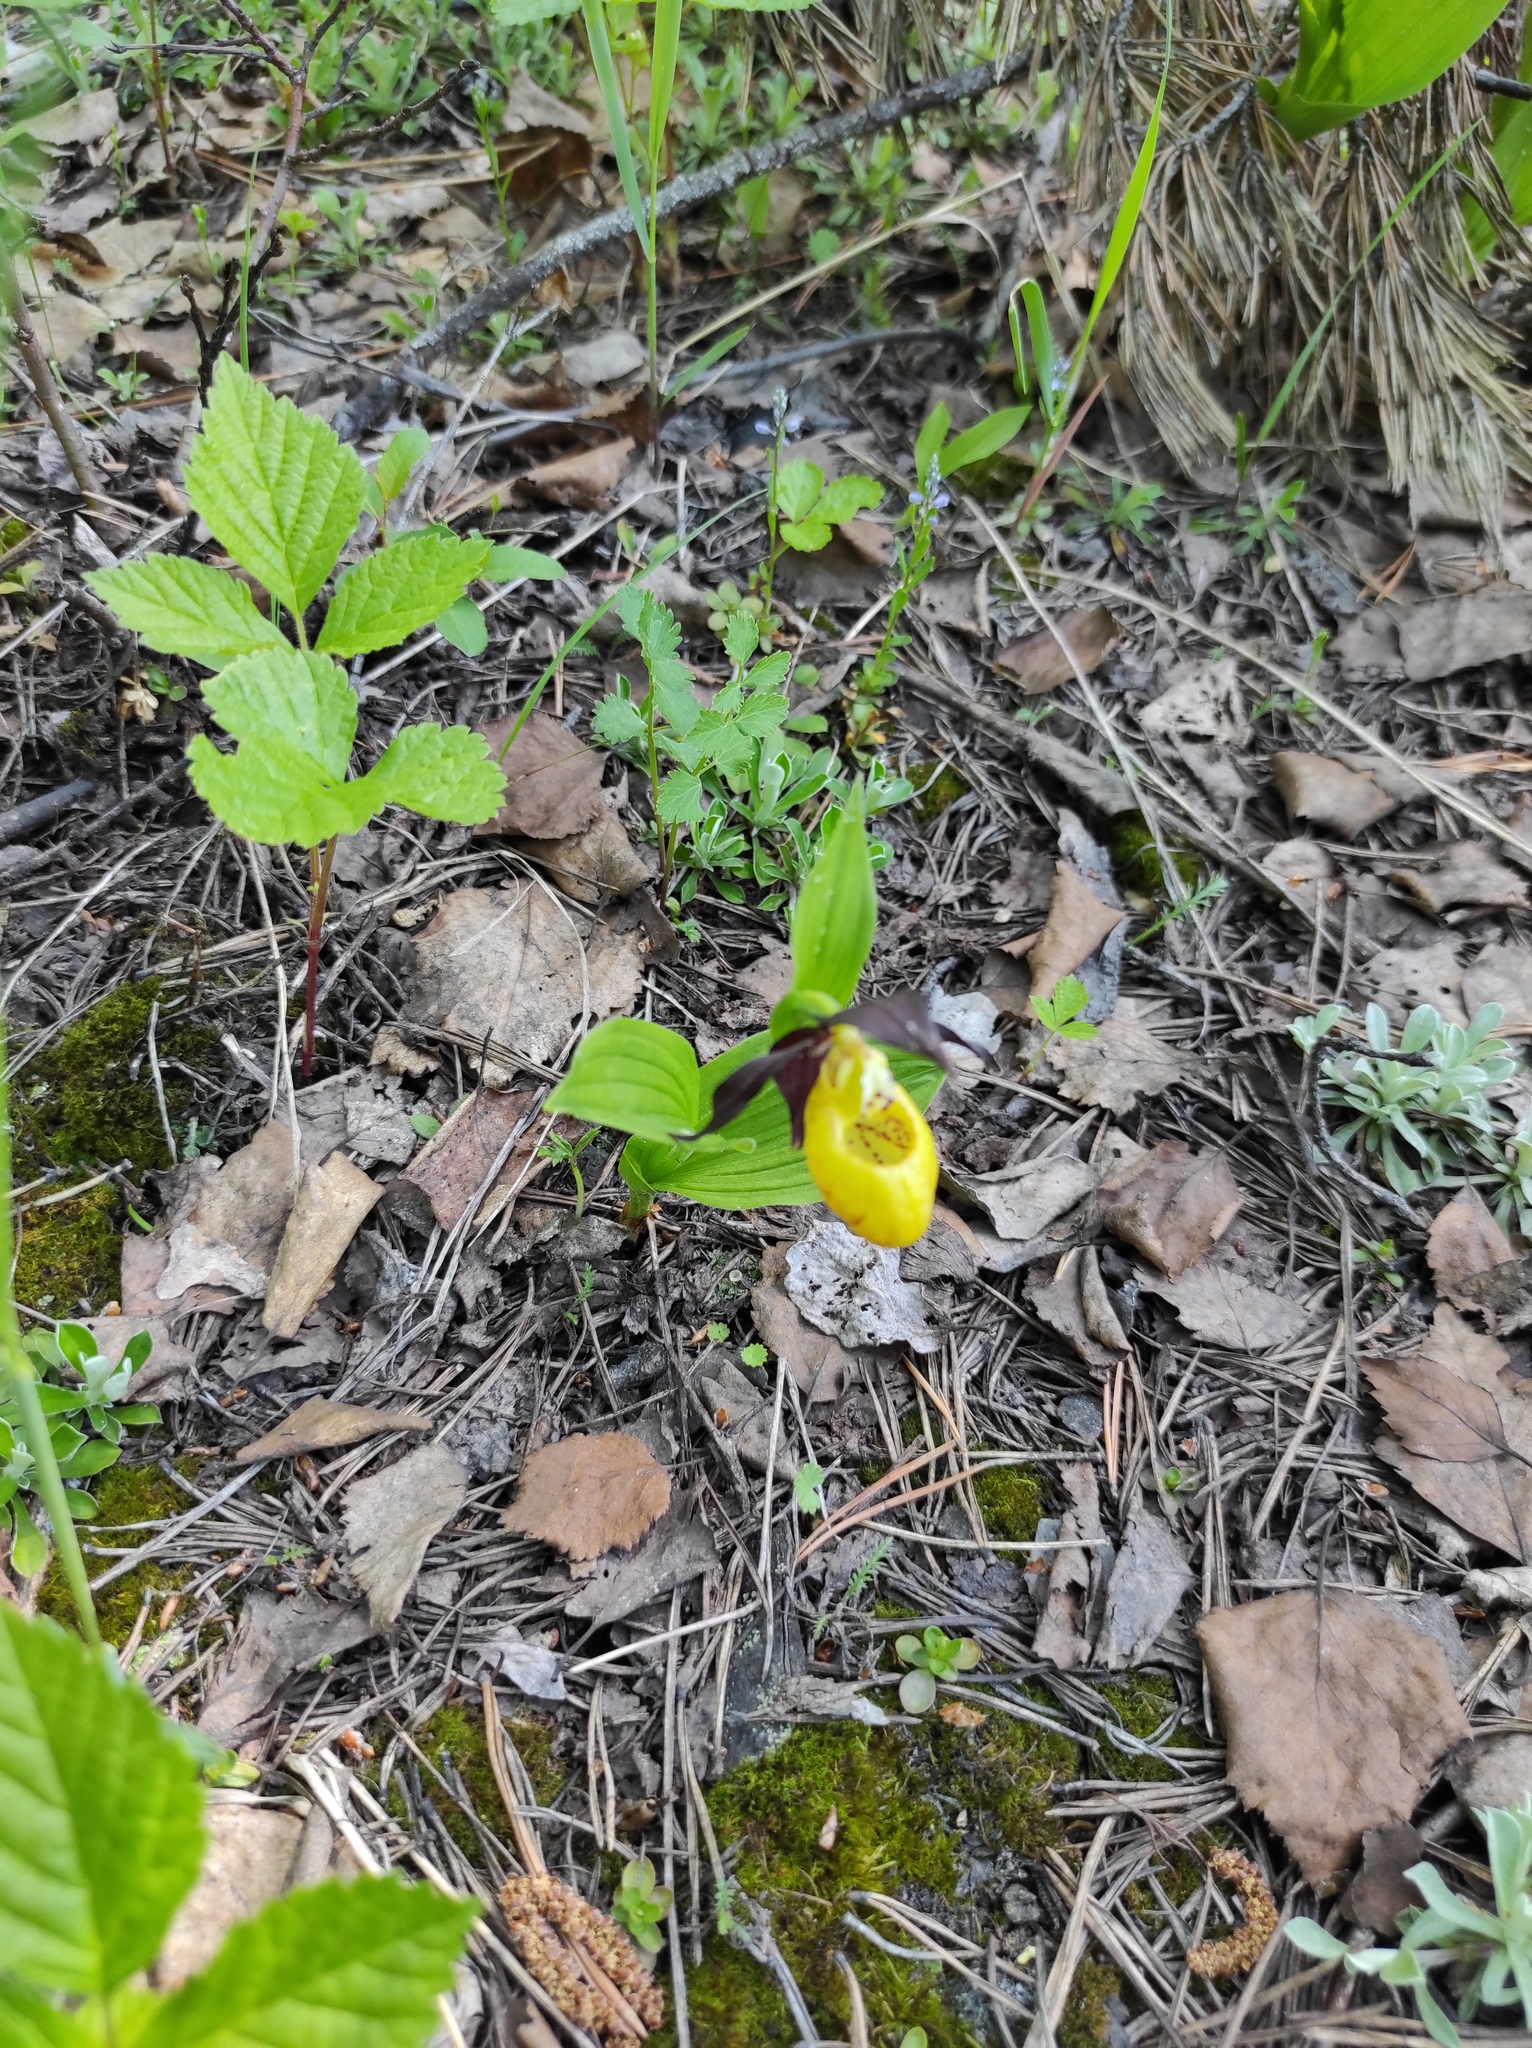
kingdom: Plantae
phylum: Tracheophyta
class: Liliopsida
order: Asparagales
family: Orchidaceae
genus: Cypripedium
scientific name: Cypripedium calceolus
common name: Lady's-slipper
